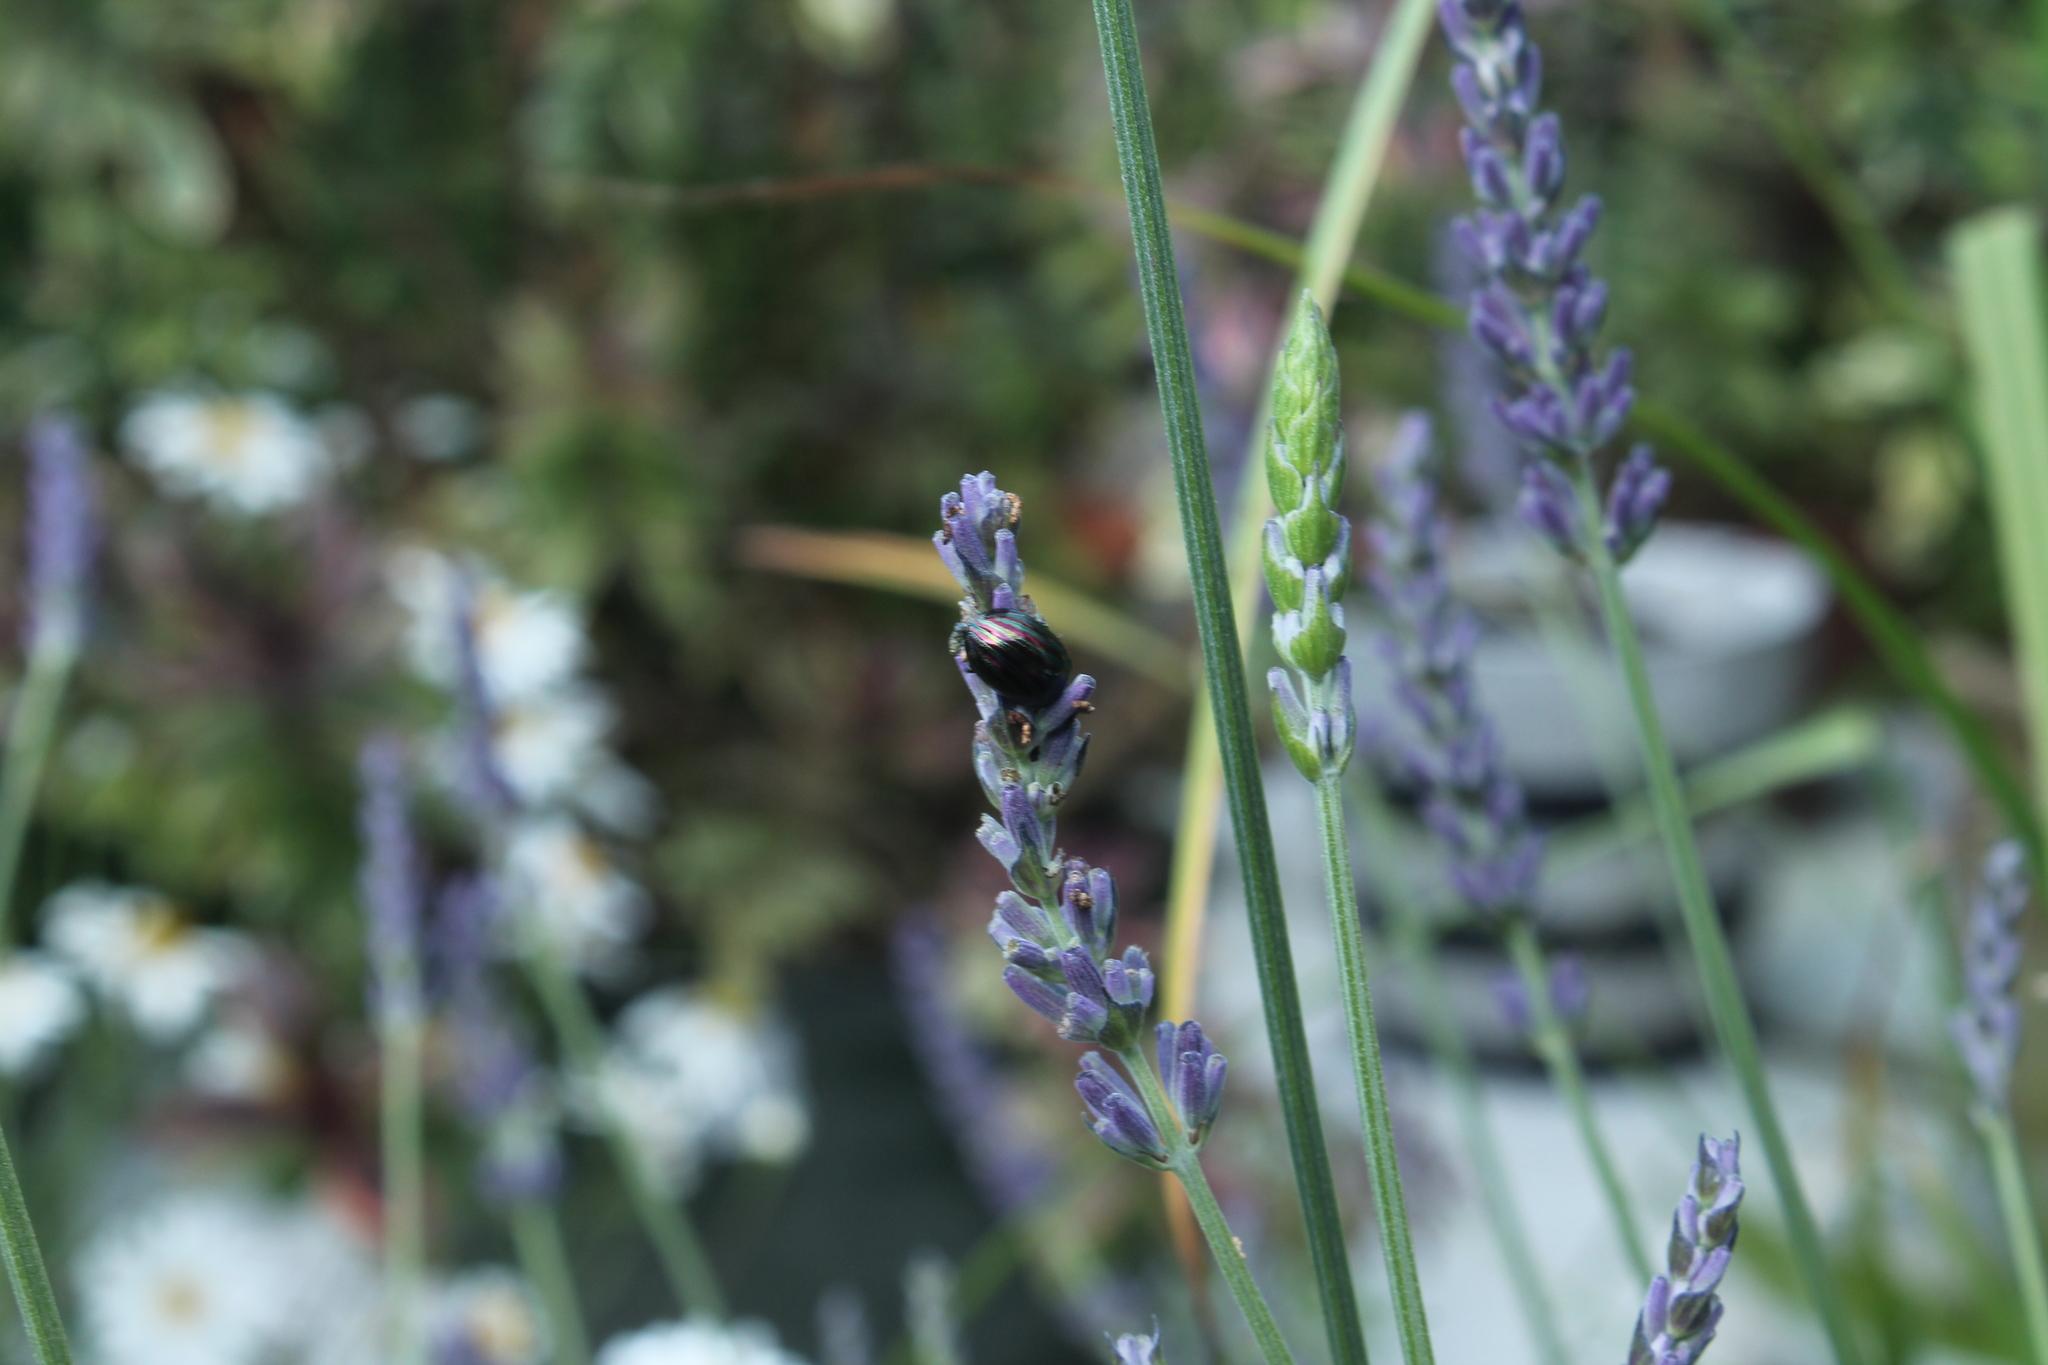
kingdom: Animalia
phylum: Arthropoda
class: Insecta
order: Coleoptera
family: Chrysomelidae
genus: Chrysolina
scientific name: Chrysolina americana
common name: Rosemary beetle
